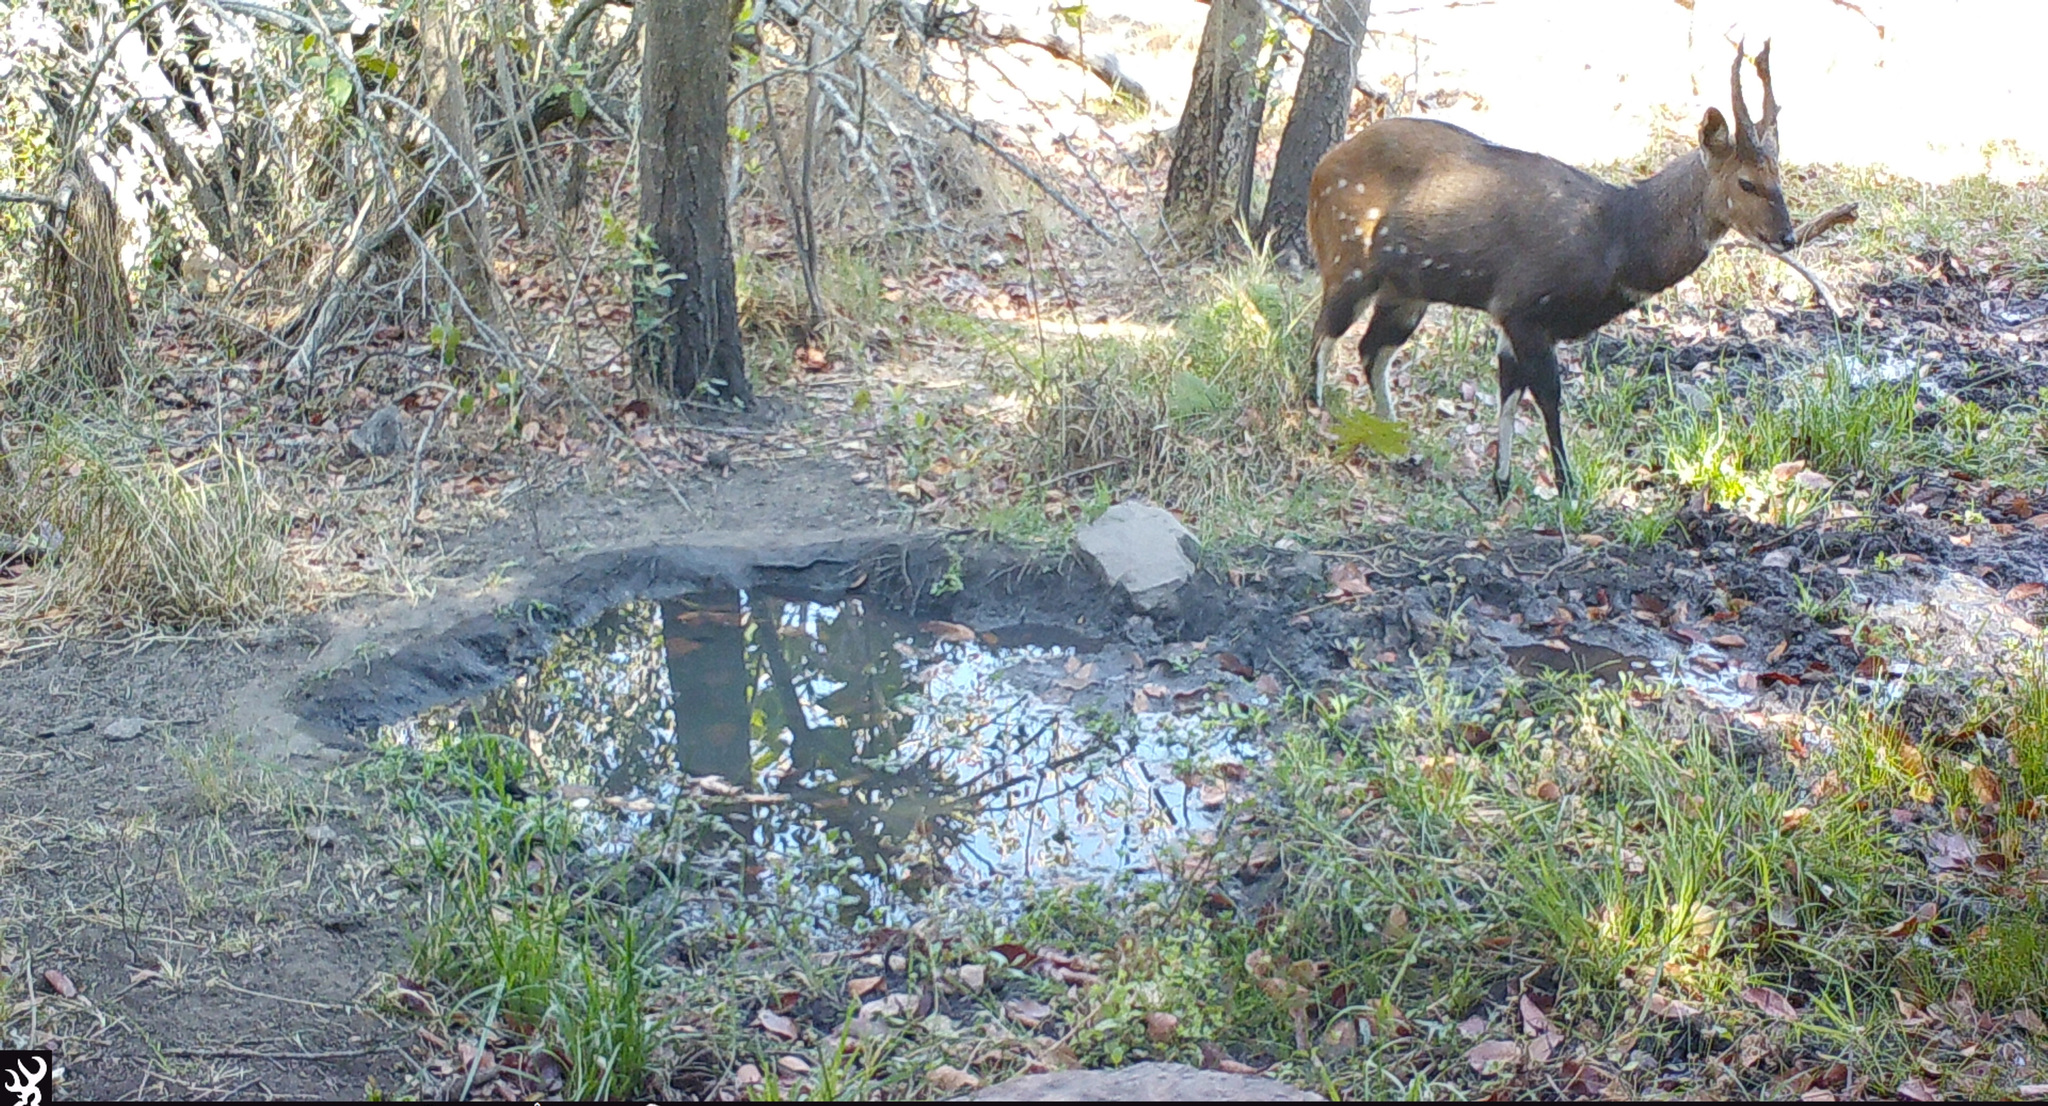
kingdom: Animalia
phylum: Chordata
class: Mammalia
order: Artiodactyla
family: Bovidae
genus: Tragelaphus
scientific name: Tragelaphus scriptus
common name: Bushbuck
